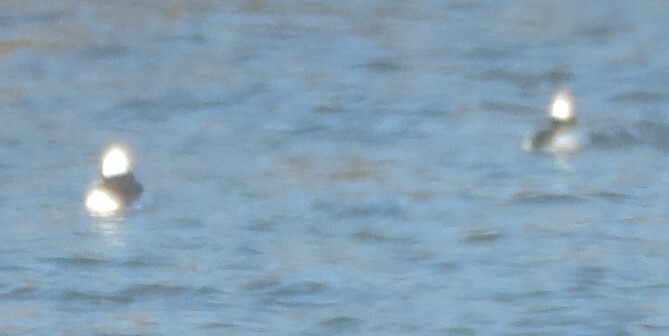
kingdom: Animalia
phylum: Chordata
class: Aves
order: Anseriformes
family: Anatidae
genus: Bucephala
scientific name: Bucephala albeola
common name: Bufflehead
